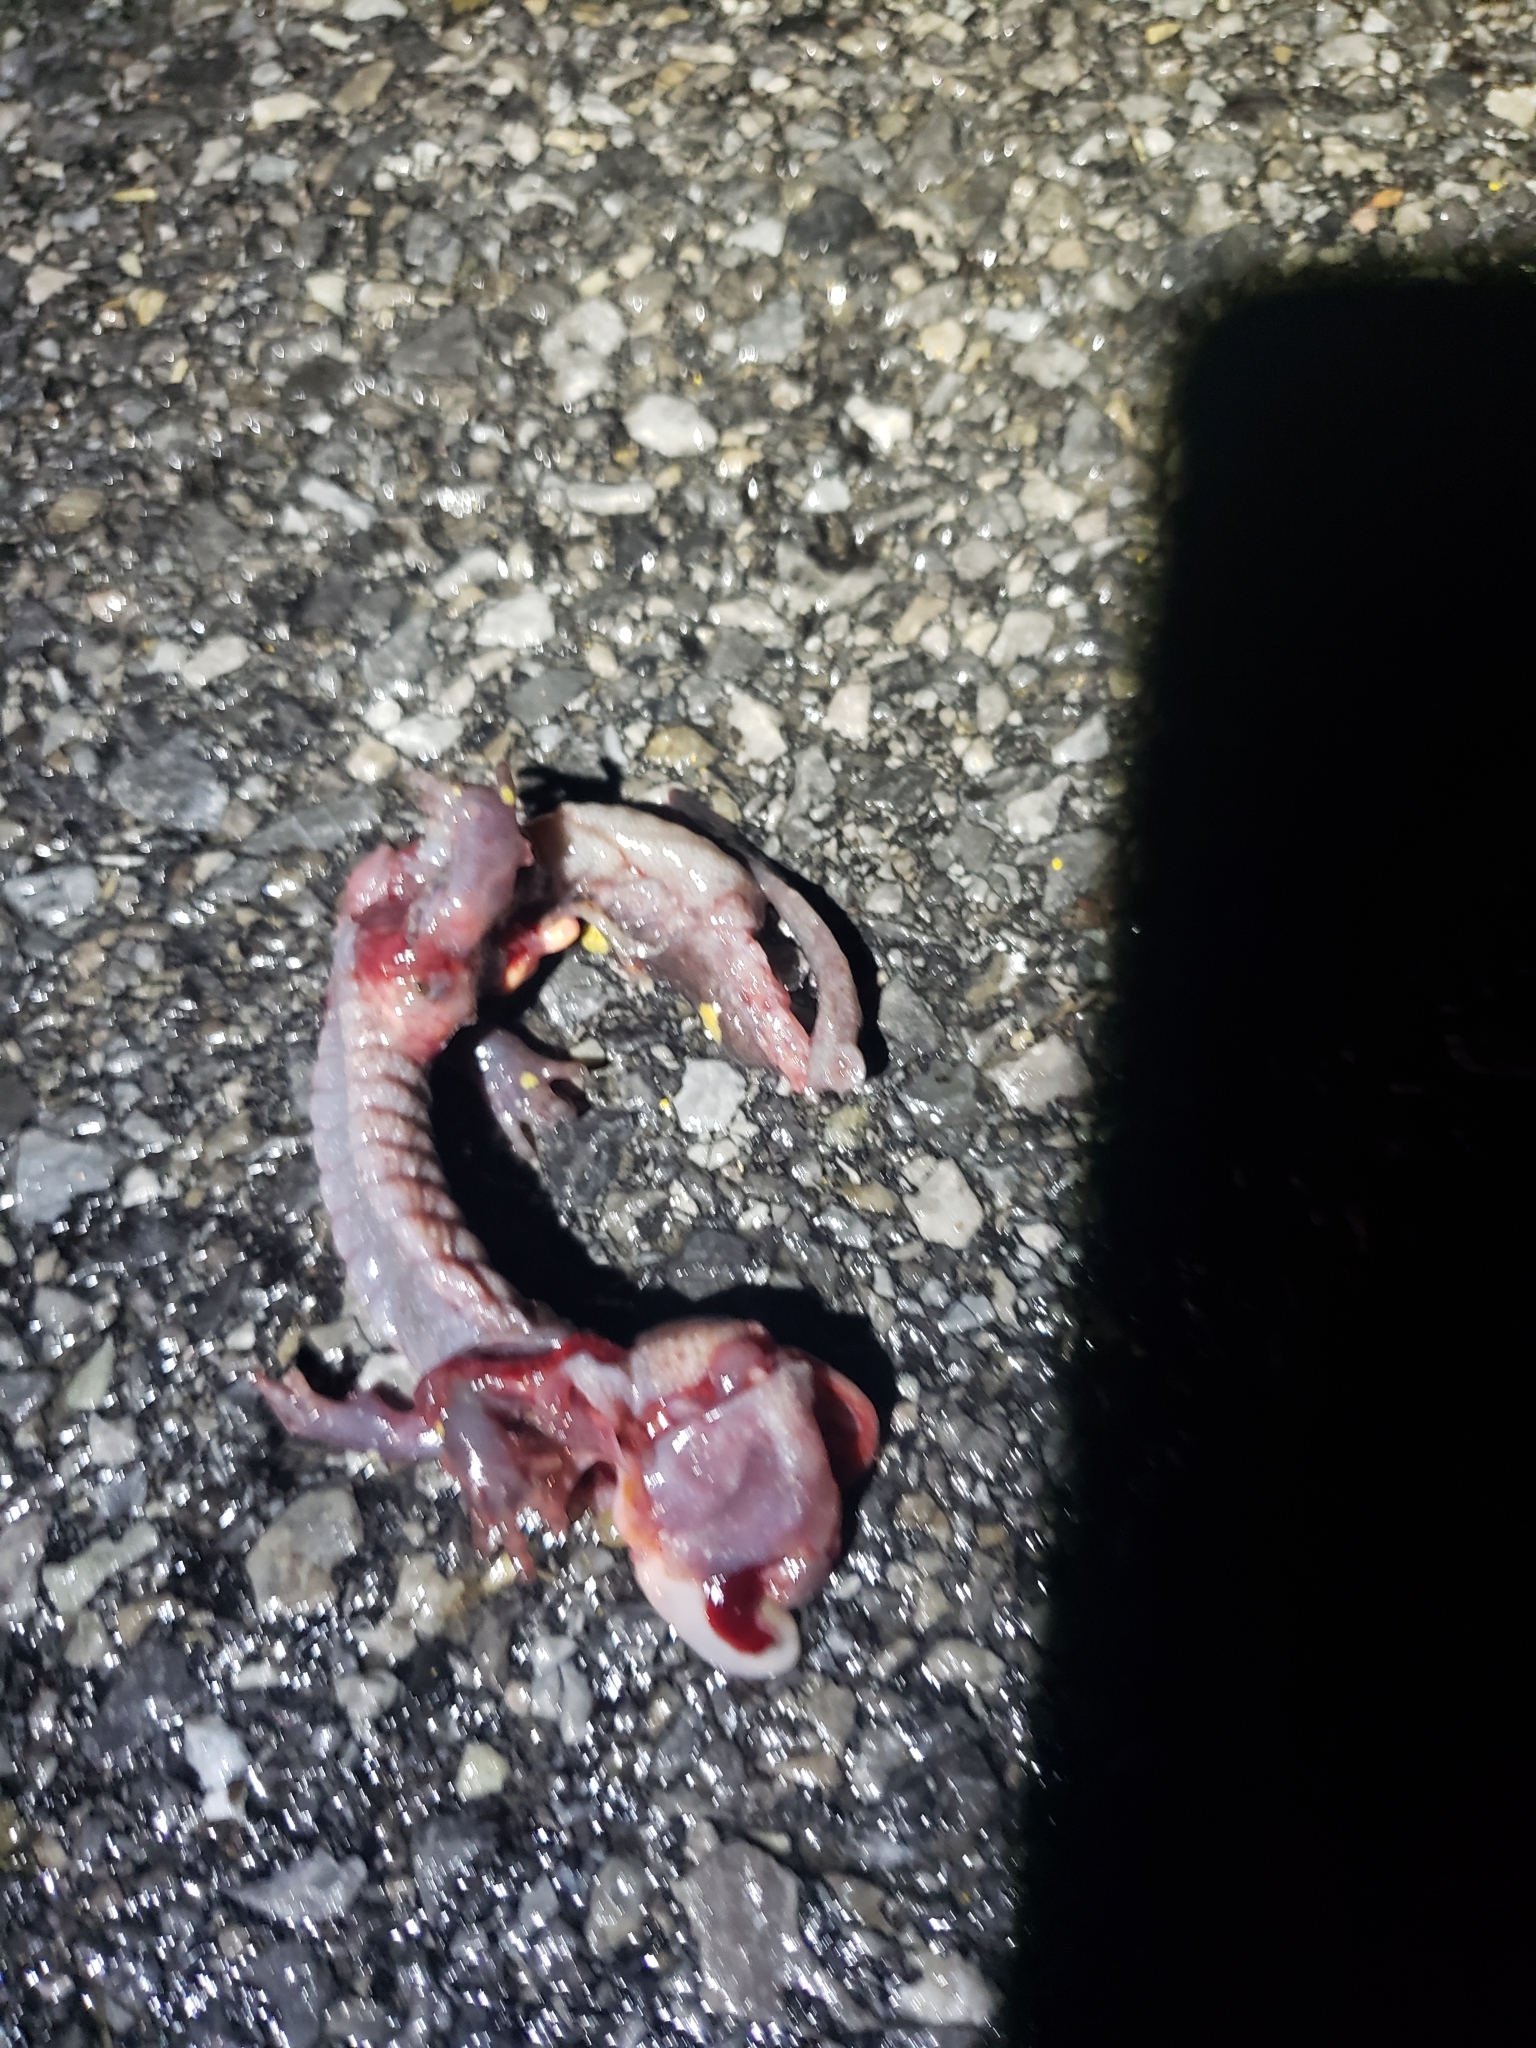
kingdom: Animalia
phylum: Chordata
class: Amphibia
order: Caudata
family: Ambystomatidae
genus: Ambystoma
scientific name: Ambystoma maculatum
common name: Spotted salamander
